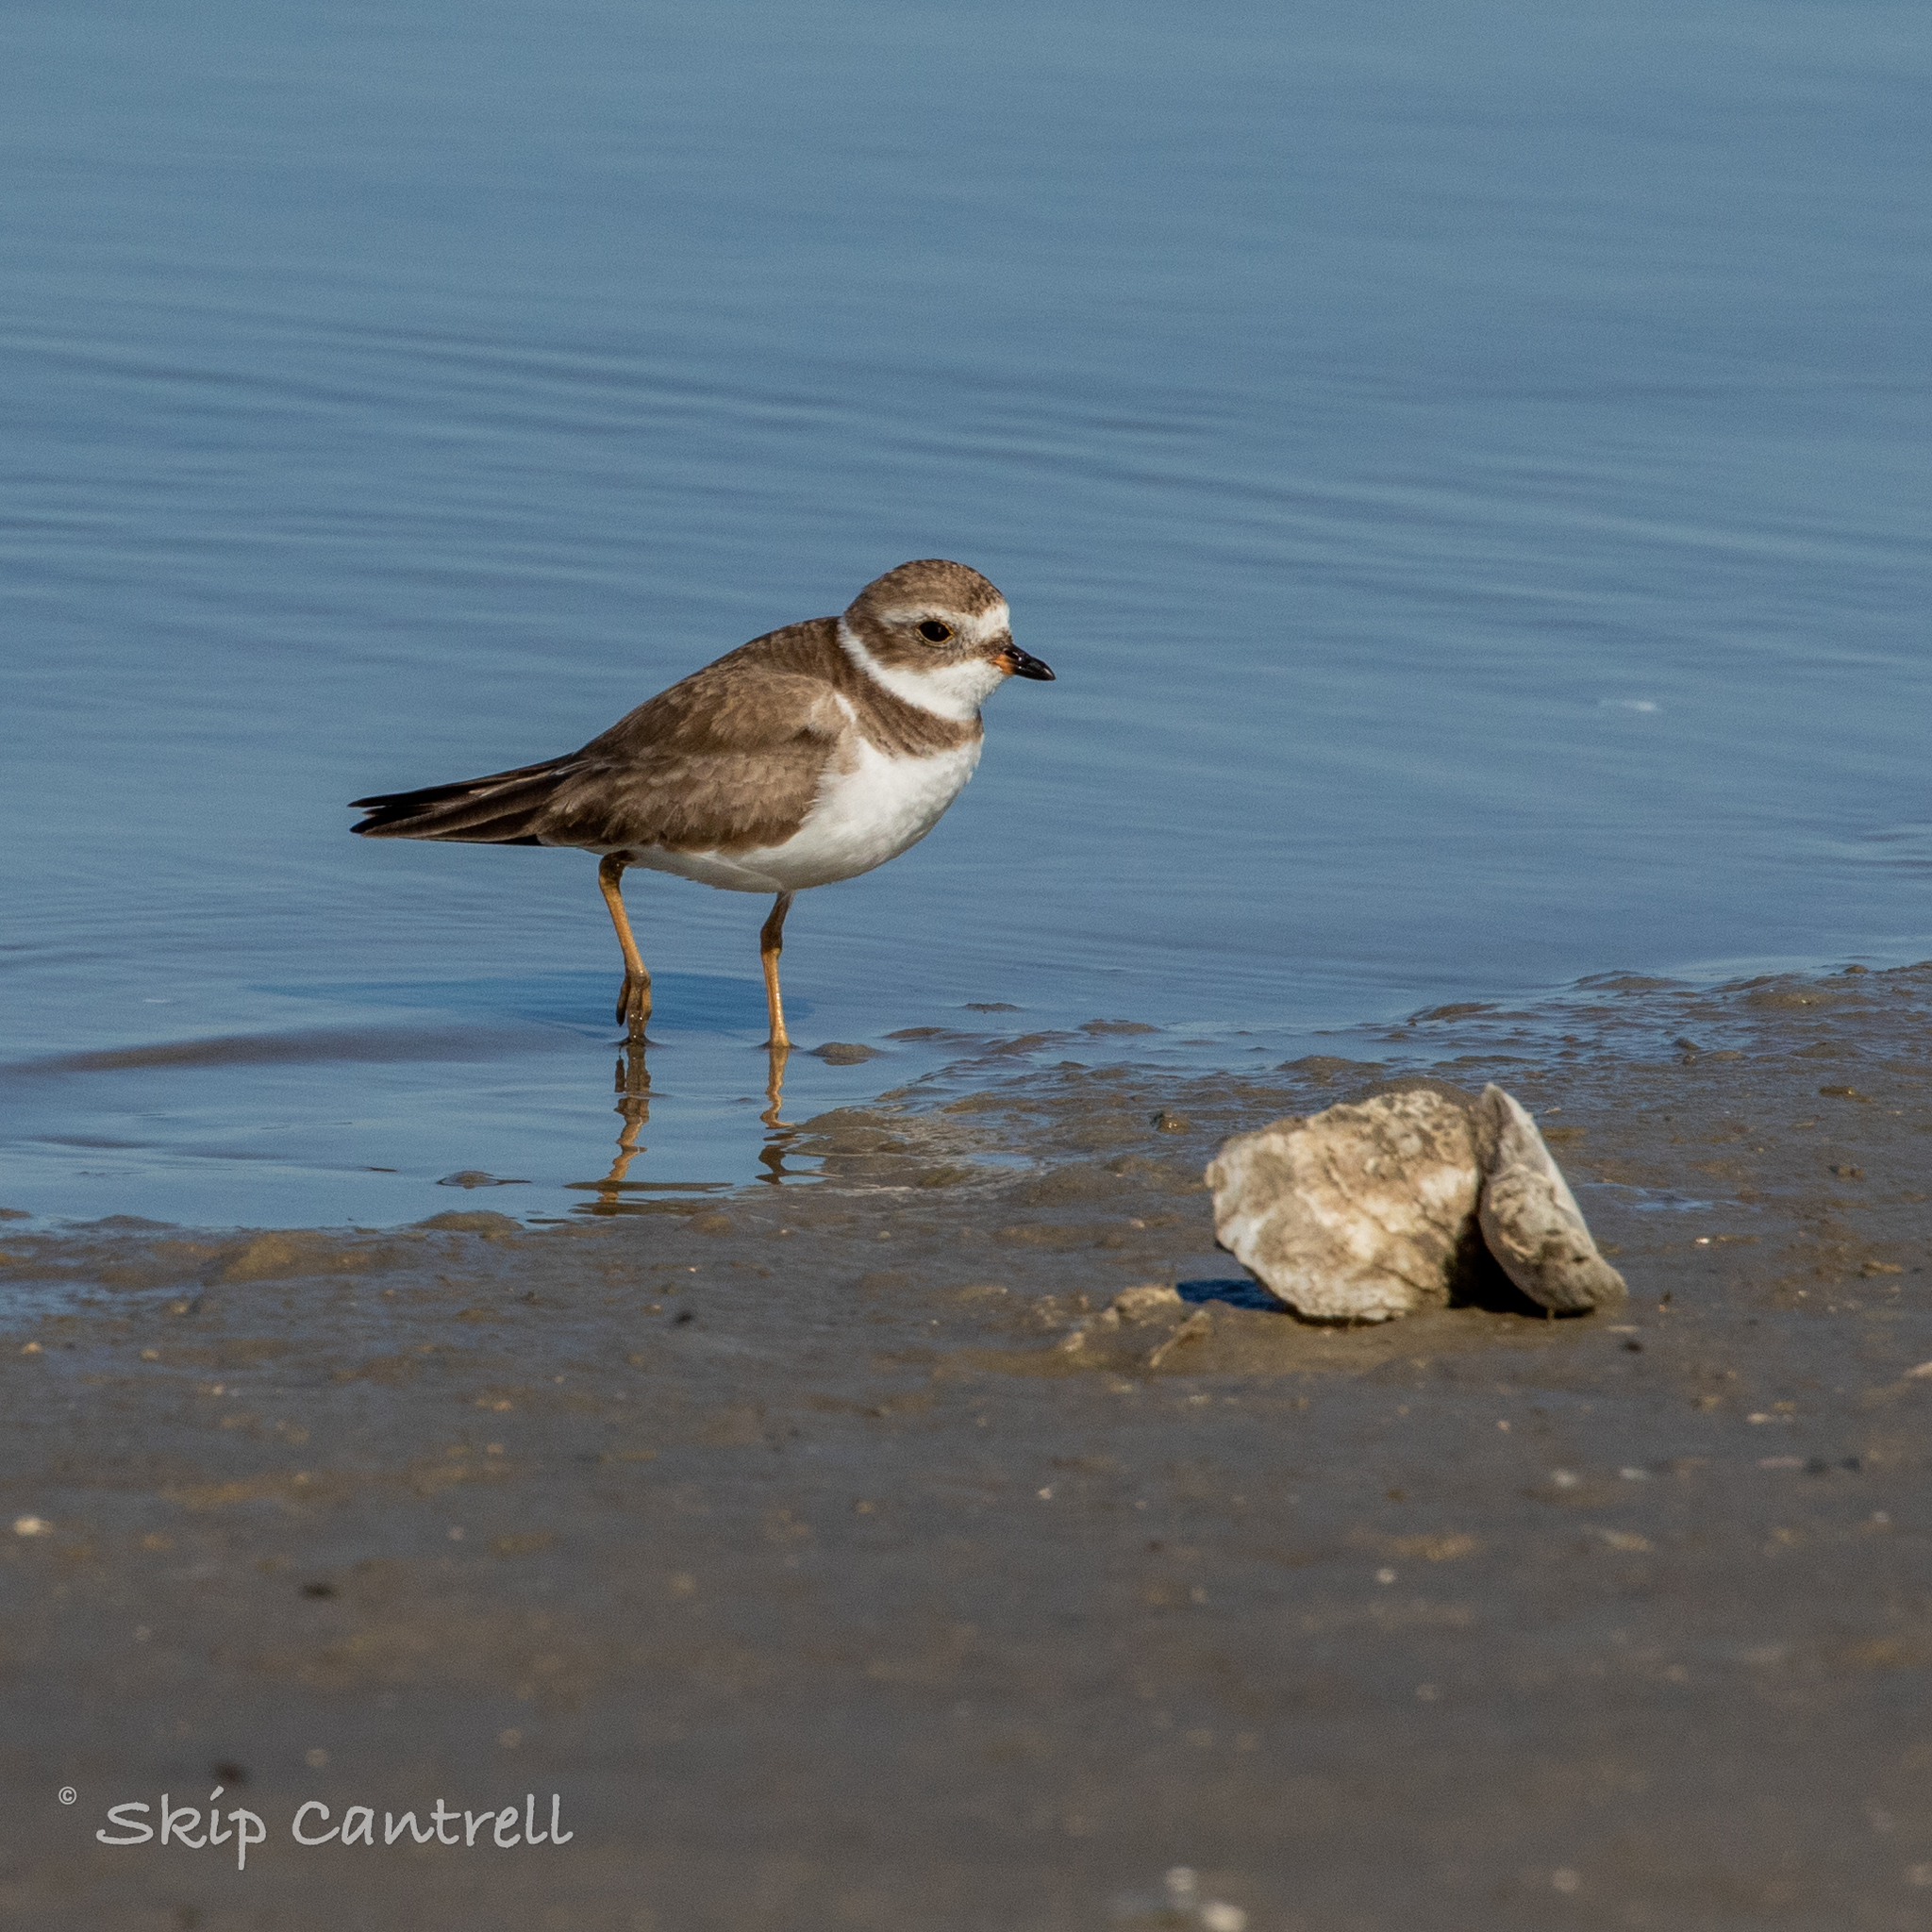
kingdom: Animalia
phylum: Chordata
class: Aves
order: Charadriiformes
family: Charadriidae
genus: Charadrius
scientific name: Charadrius semipalmatus
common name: Semipalmated plover
